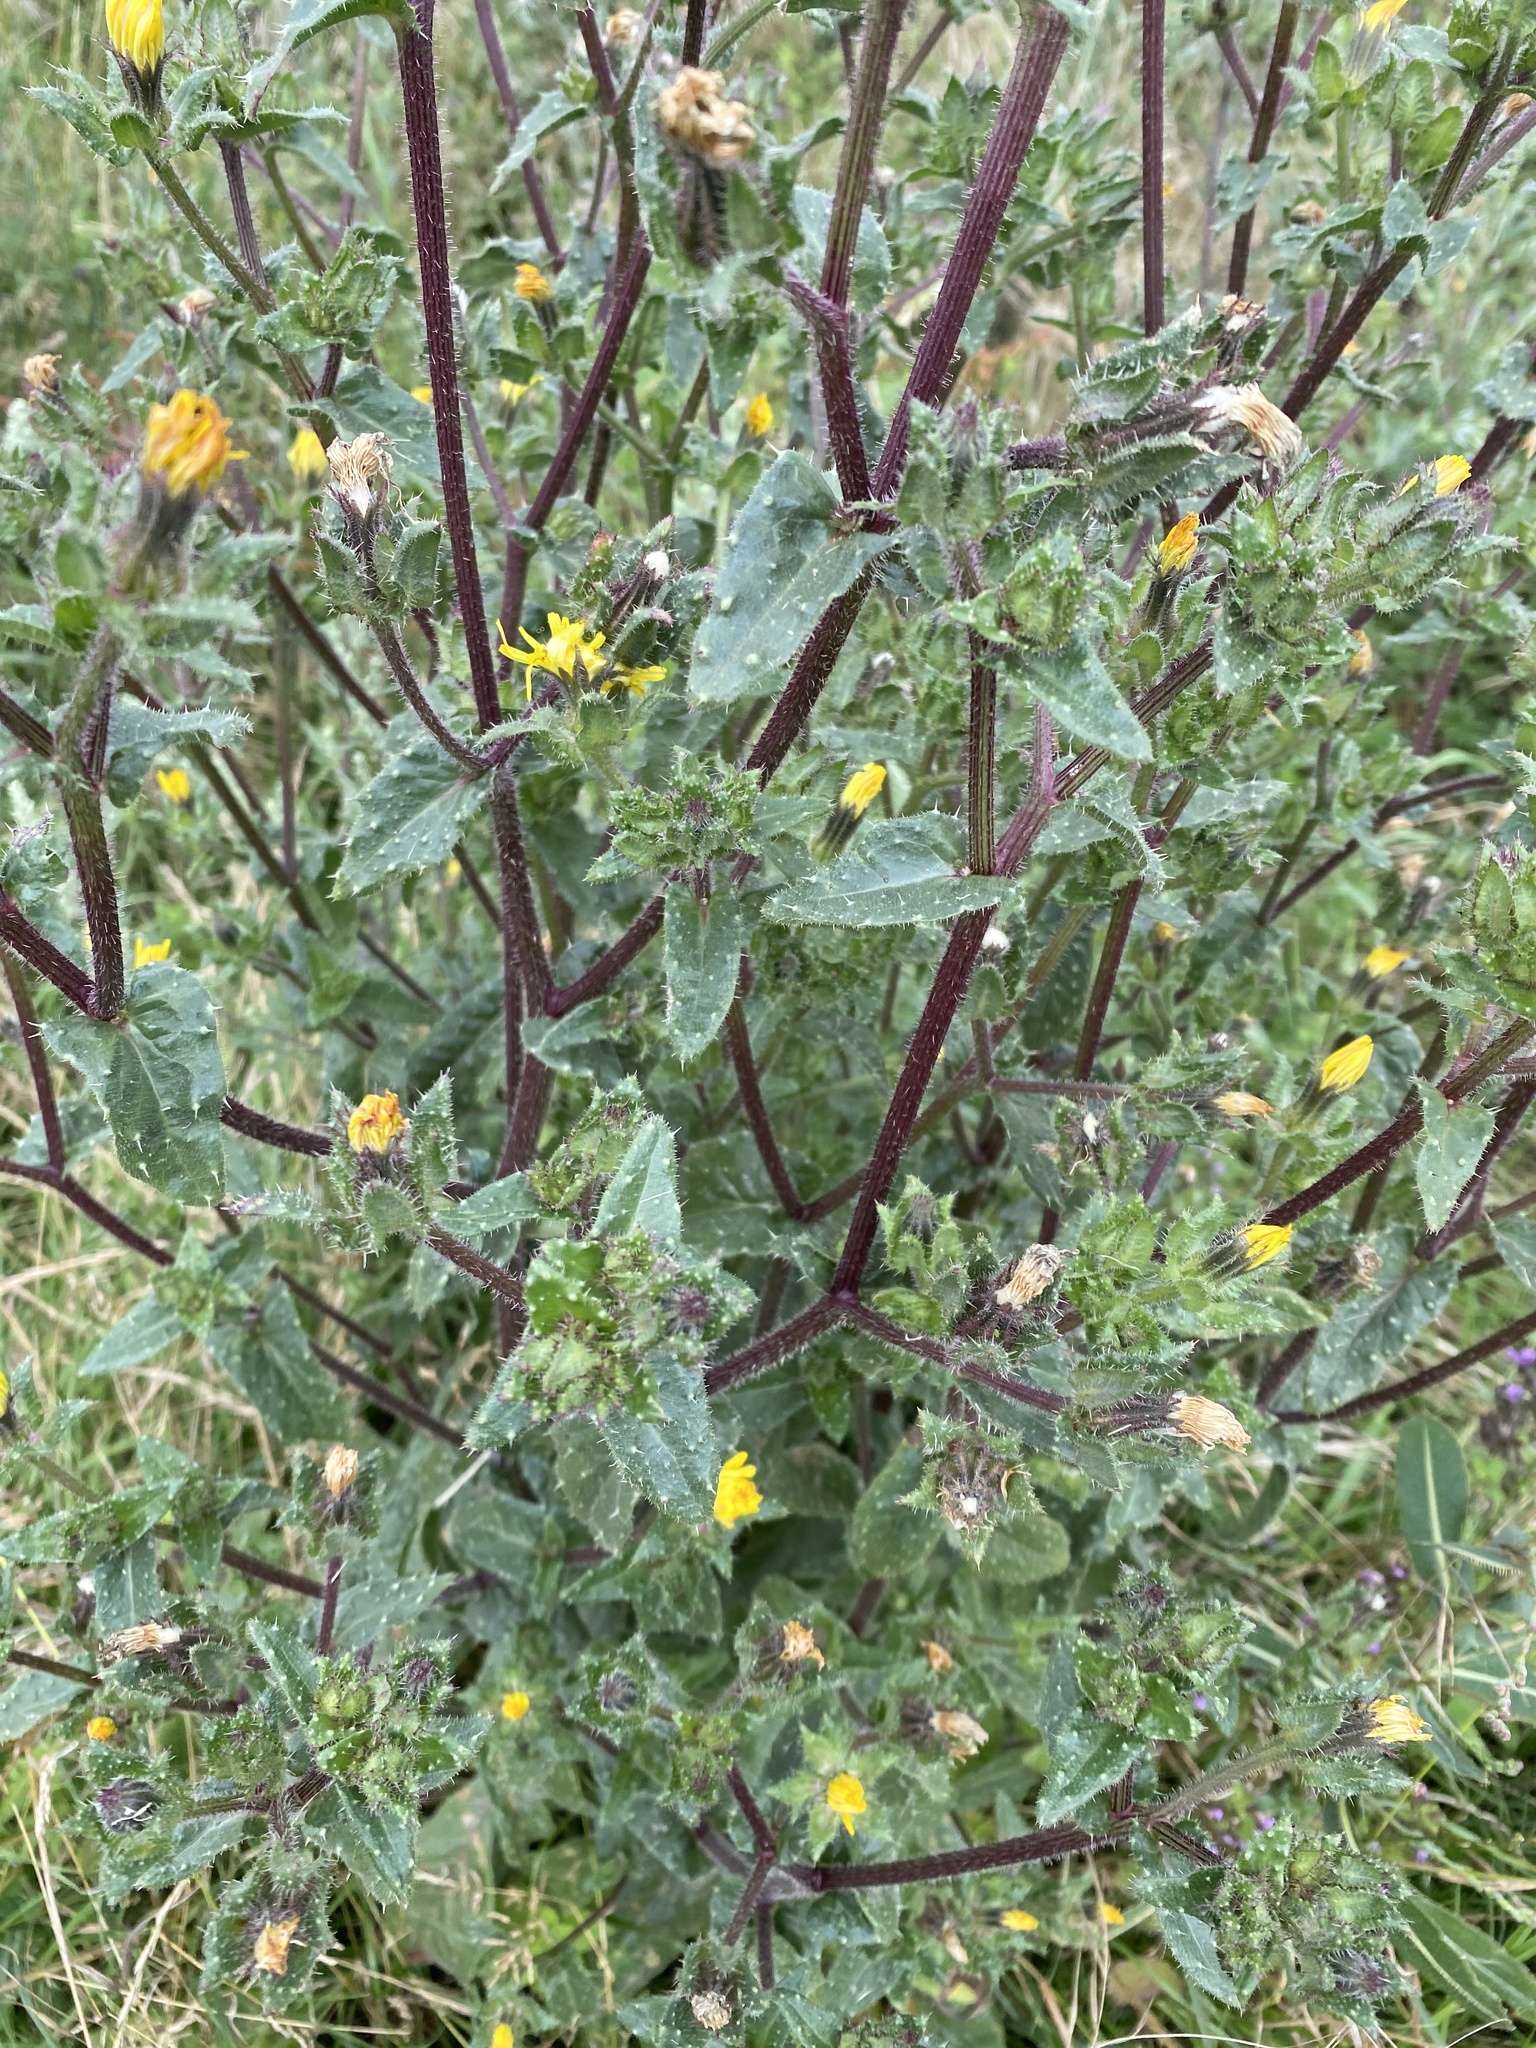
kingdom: Plantae
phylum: Tracheophyta
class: Magnoliopsida
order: Asterales
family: Asteraceae
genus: Helminthotheca
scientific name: Helminthotheca echioides
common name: Ox-tongue
